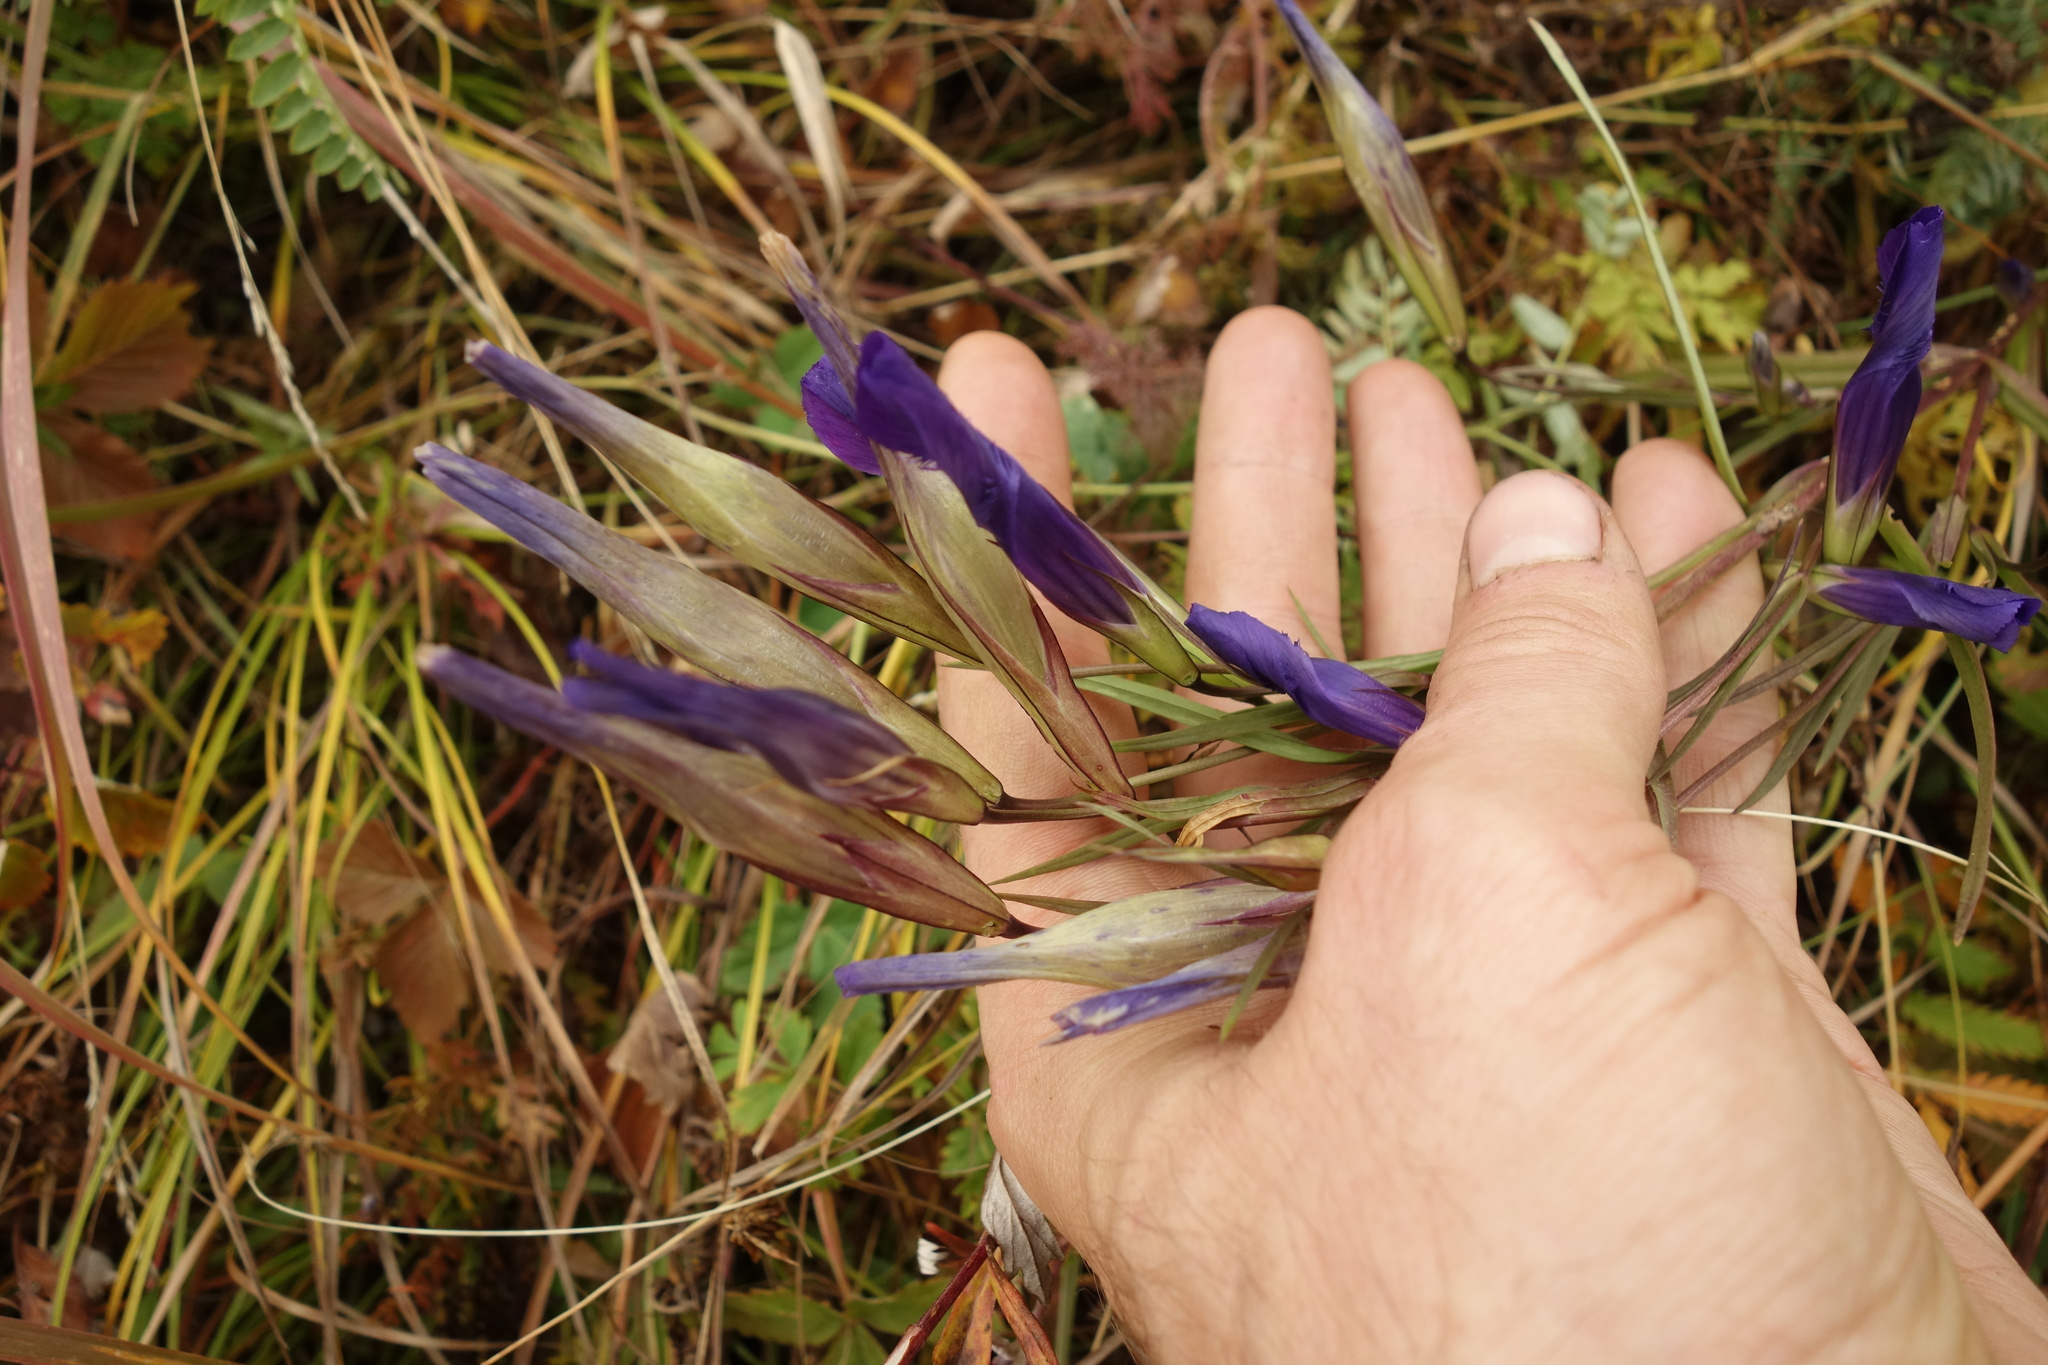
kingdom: Plantae
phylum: Tracheophyta
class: Magnoliopsida
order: Gentianales
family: Gentianaceae
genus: Gentianopsis
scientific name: Gentianopsis barbata
